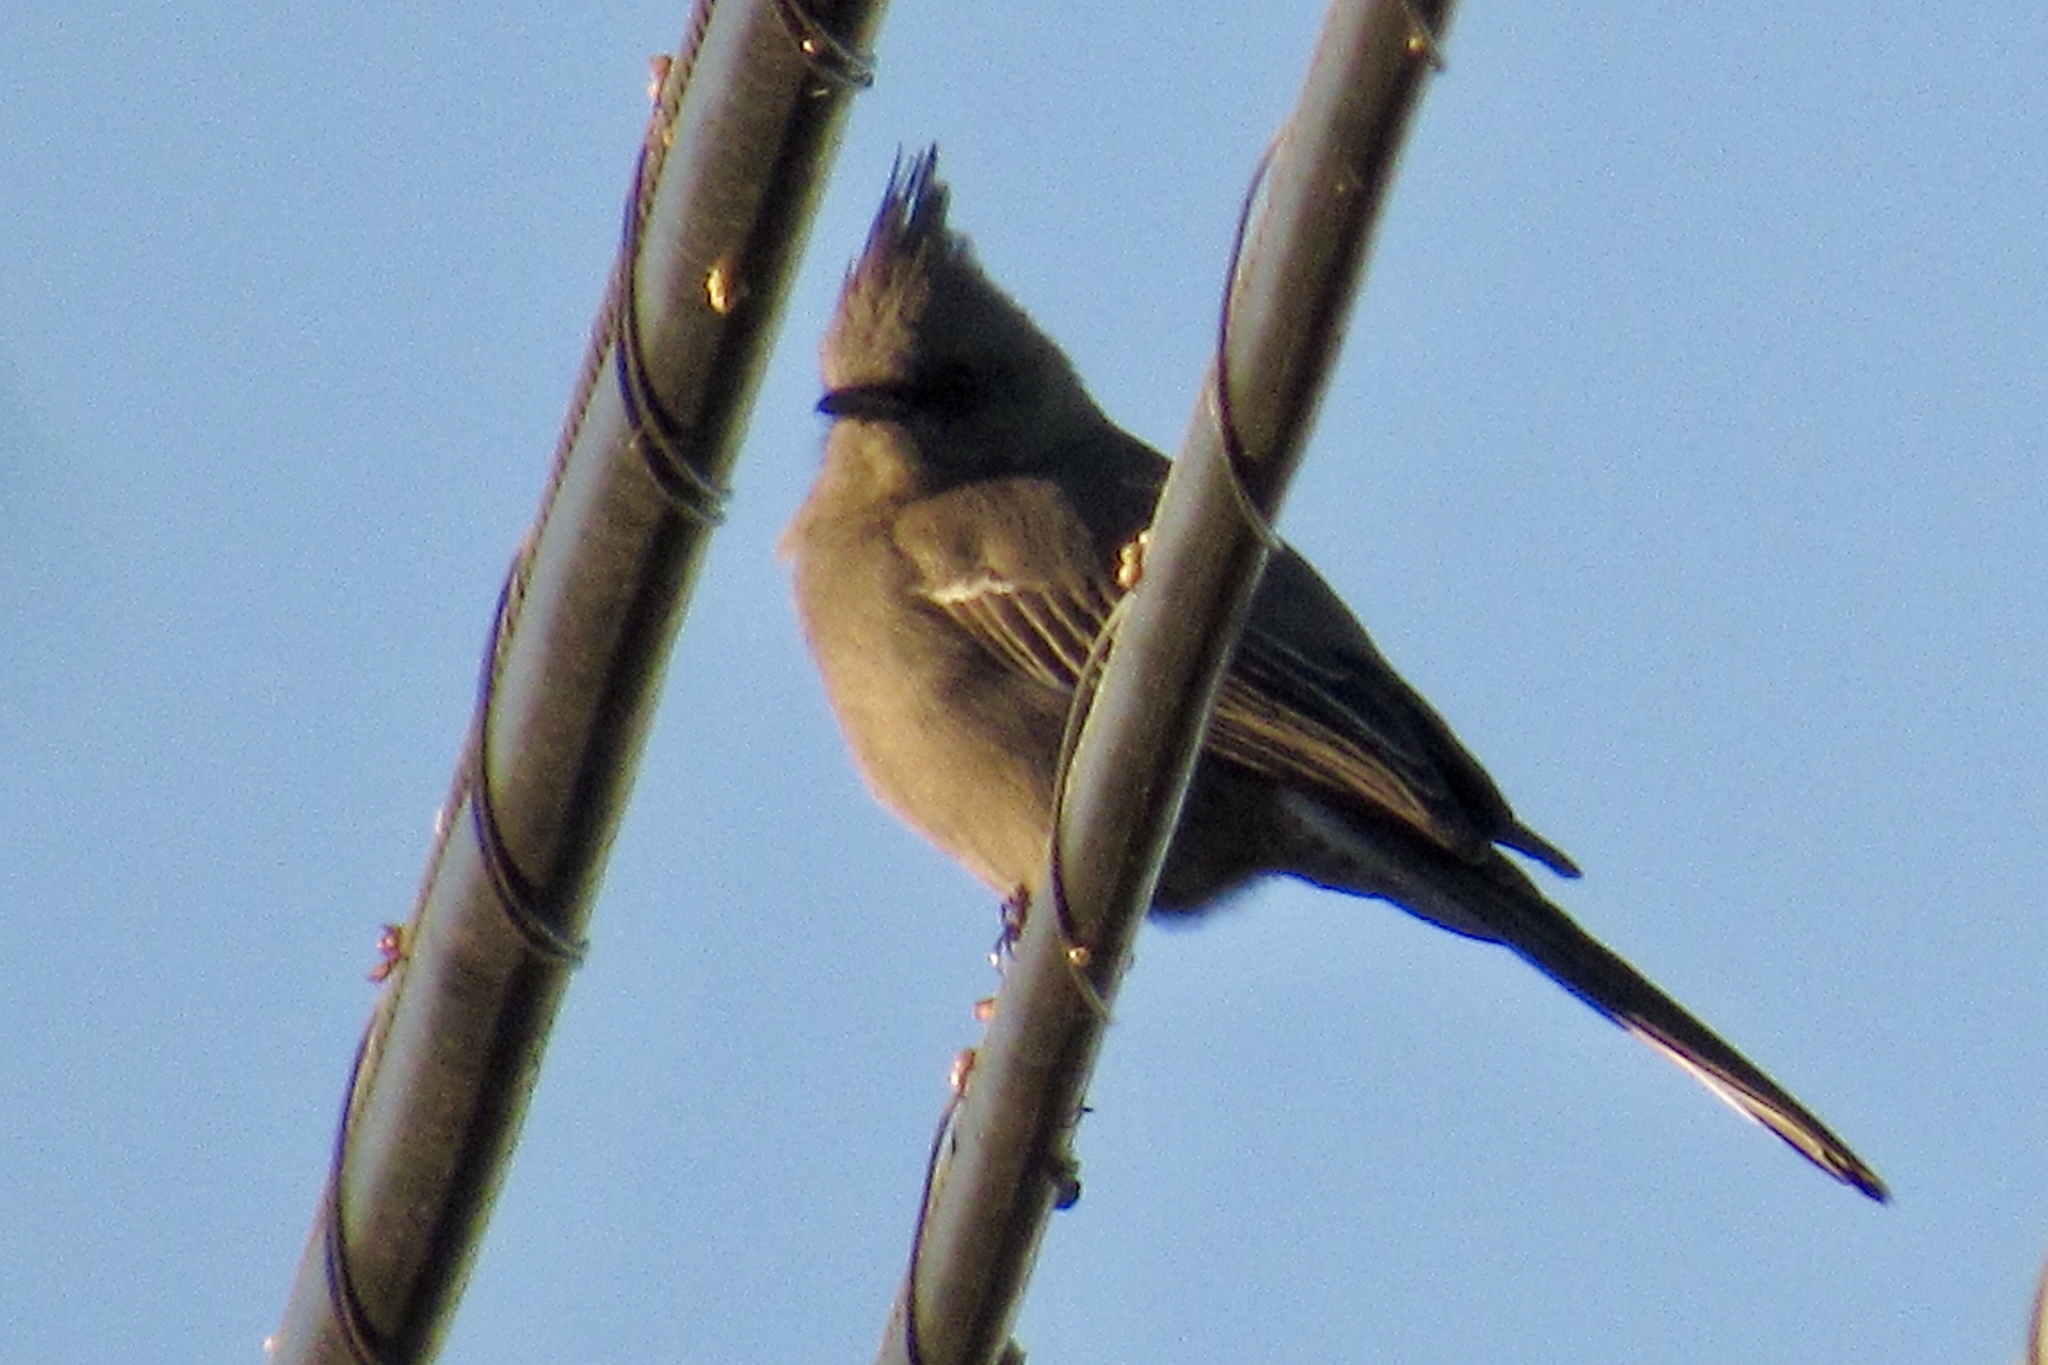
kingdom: Animalia
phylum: Chordata
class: Aves
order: Passeriformes
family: Ptilogonatidae
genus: Phainopepla
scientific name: Phainopepla nitens
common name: Phainopepla
